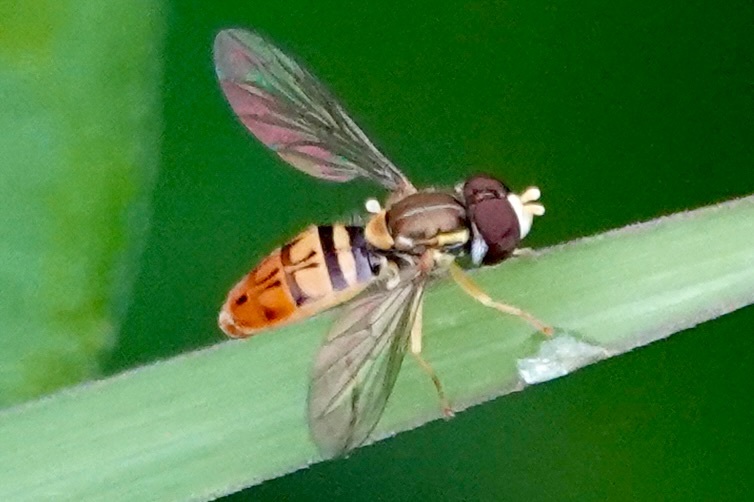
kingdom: Animalia
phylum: Arthropoda
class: Insecta
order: Diptera
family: Syrphidae
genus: Toxomerus
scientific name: Toxomerus marginatus
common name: Syrphid fly
